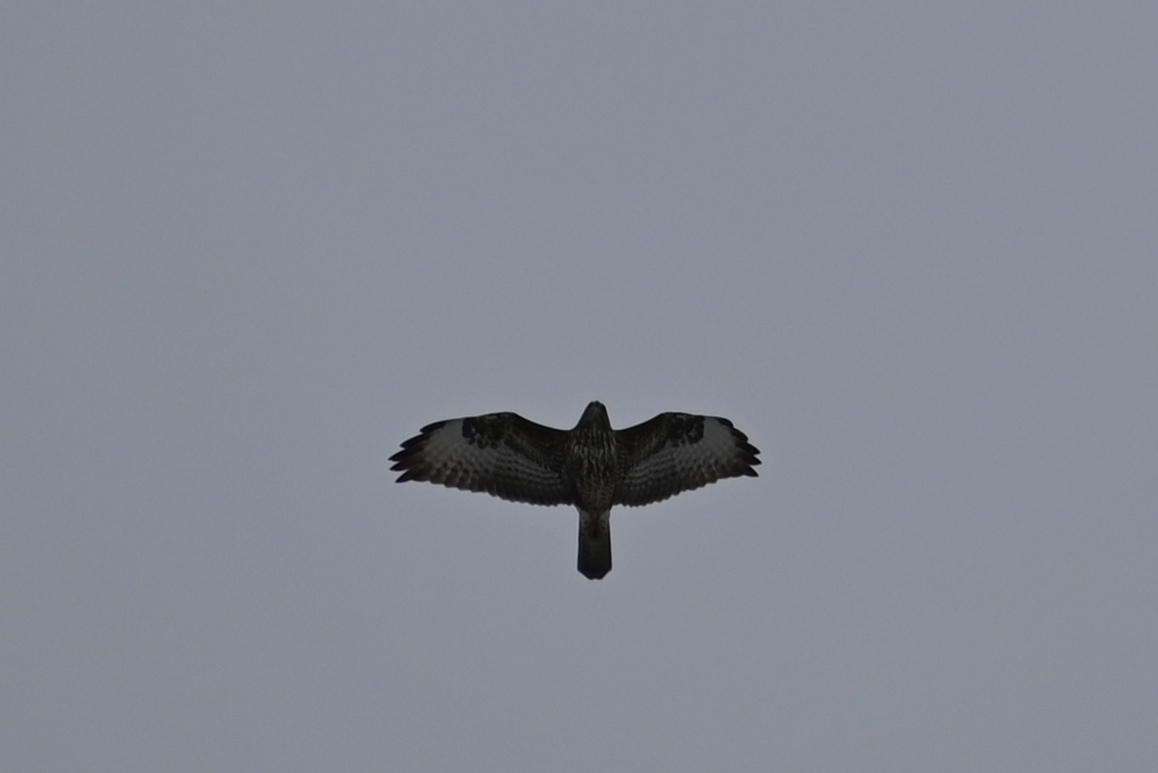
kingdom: Animalia
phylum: Chordata
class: Aves
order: Accipitriformes
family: Accipitridae
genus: Buteo
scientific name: Buteo buteo
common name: Common buzzard
